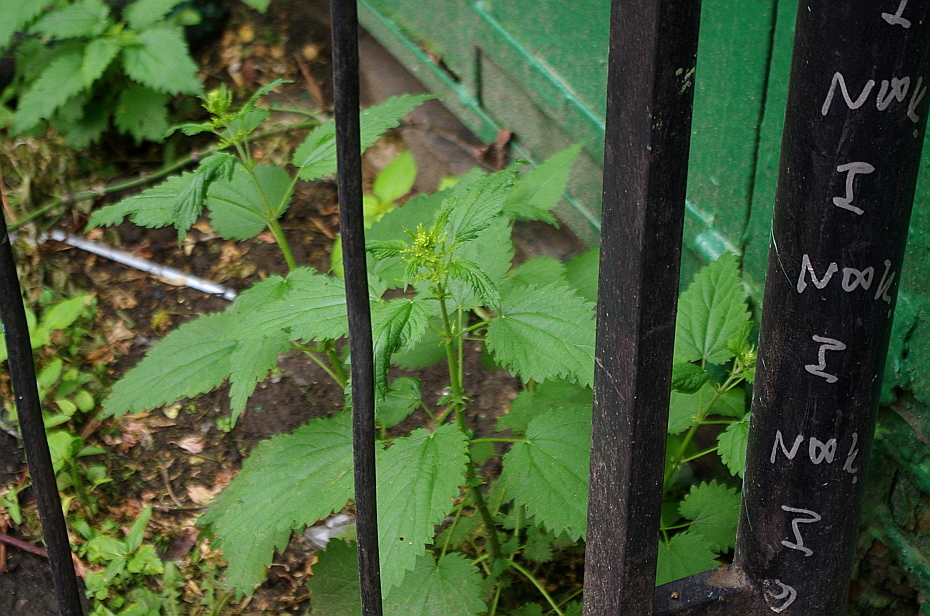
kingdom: Plantae
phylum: Tracheophyta
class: Magnoliopsida
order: Rosales
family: Urticaceae
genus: Urtica
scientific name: Urtica dioica
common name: Common nettle
